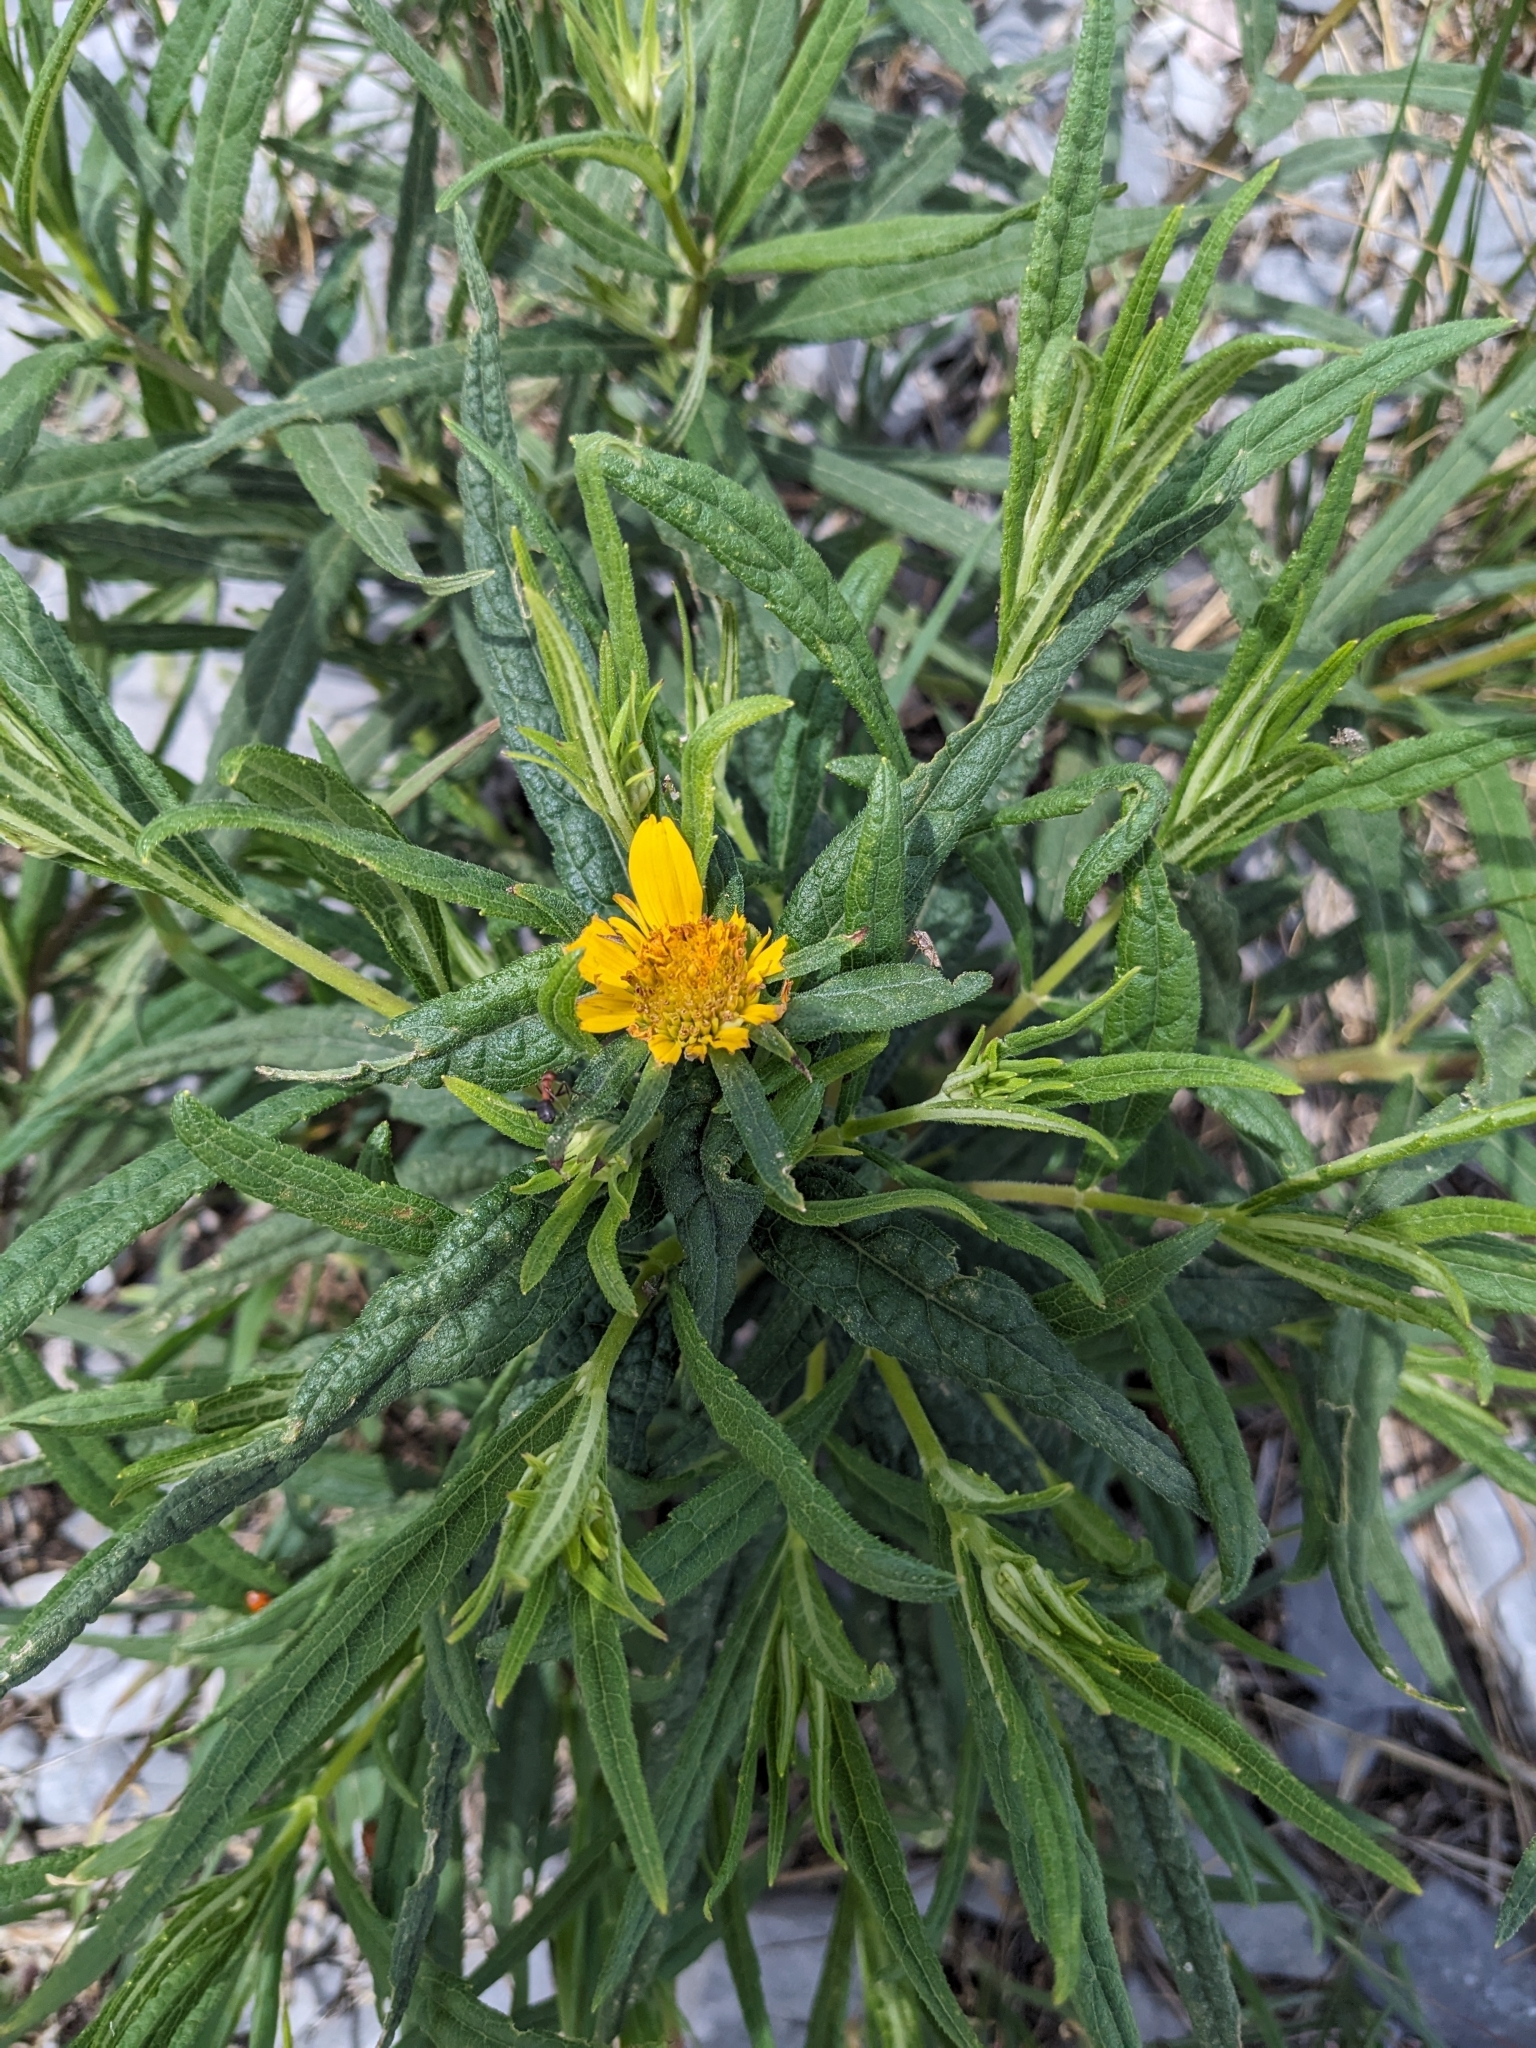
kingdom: Plantae
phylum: Tracheophyta
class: Magnoliopsida
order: Asterales
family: Asteraceae
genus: Verbesina
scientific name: Verbesina longifolia
